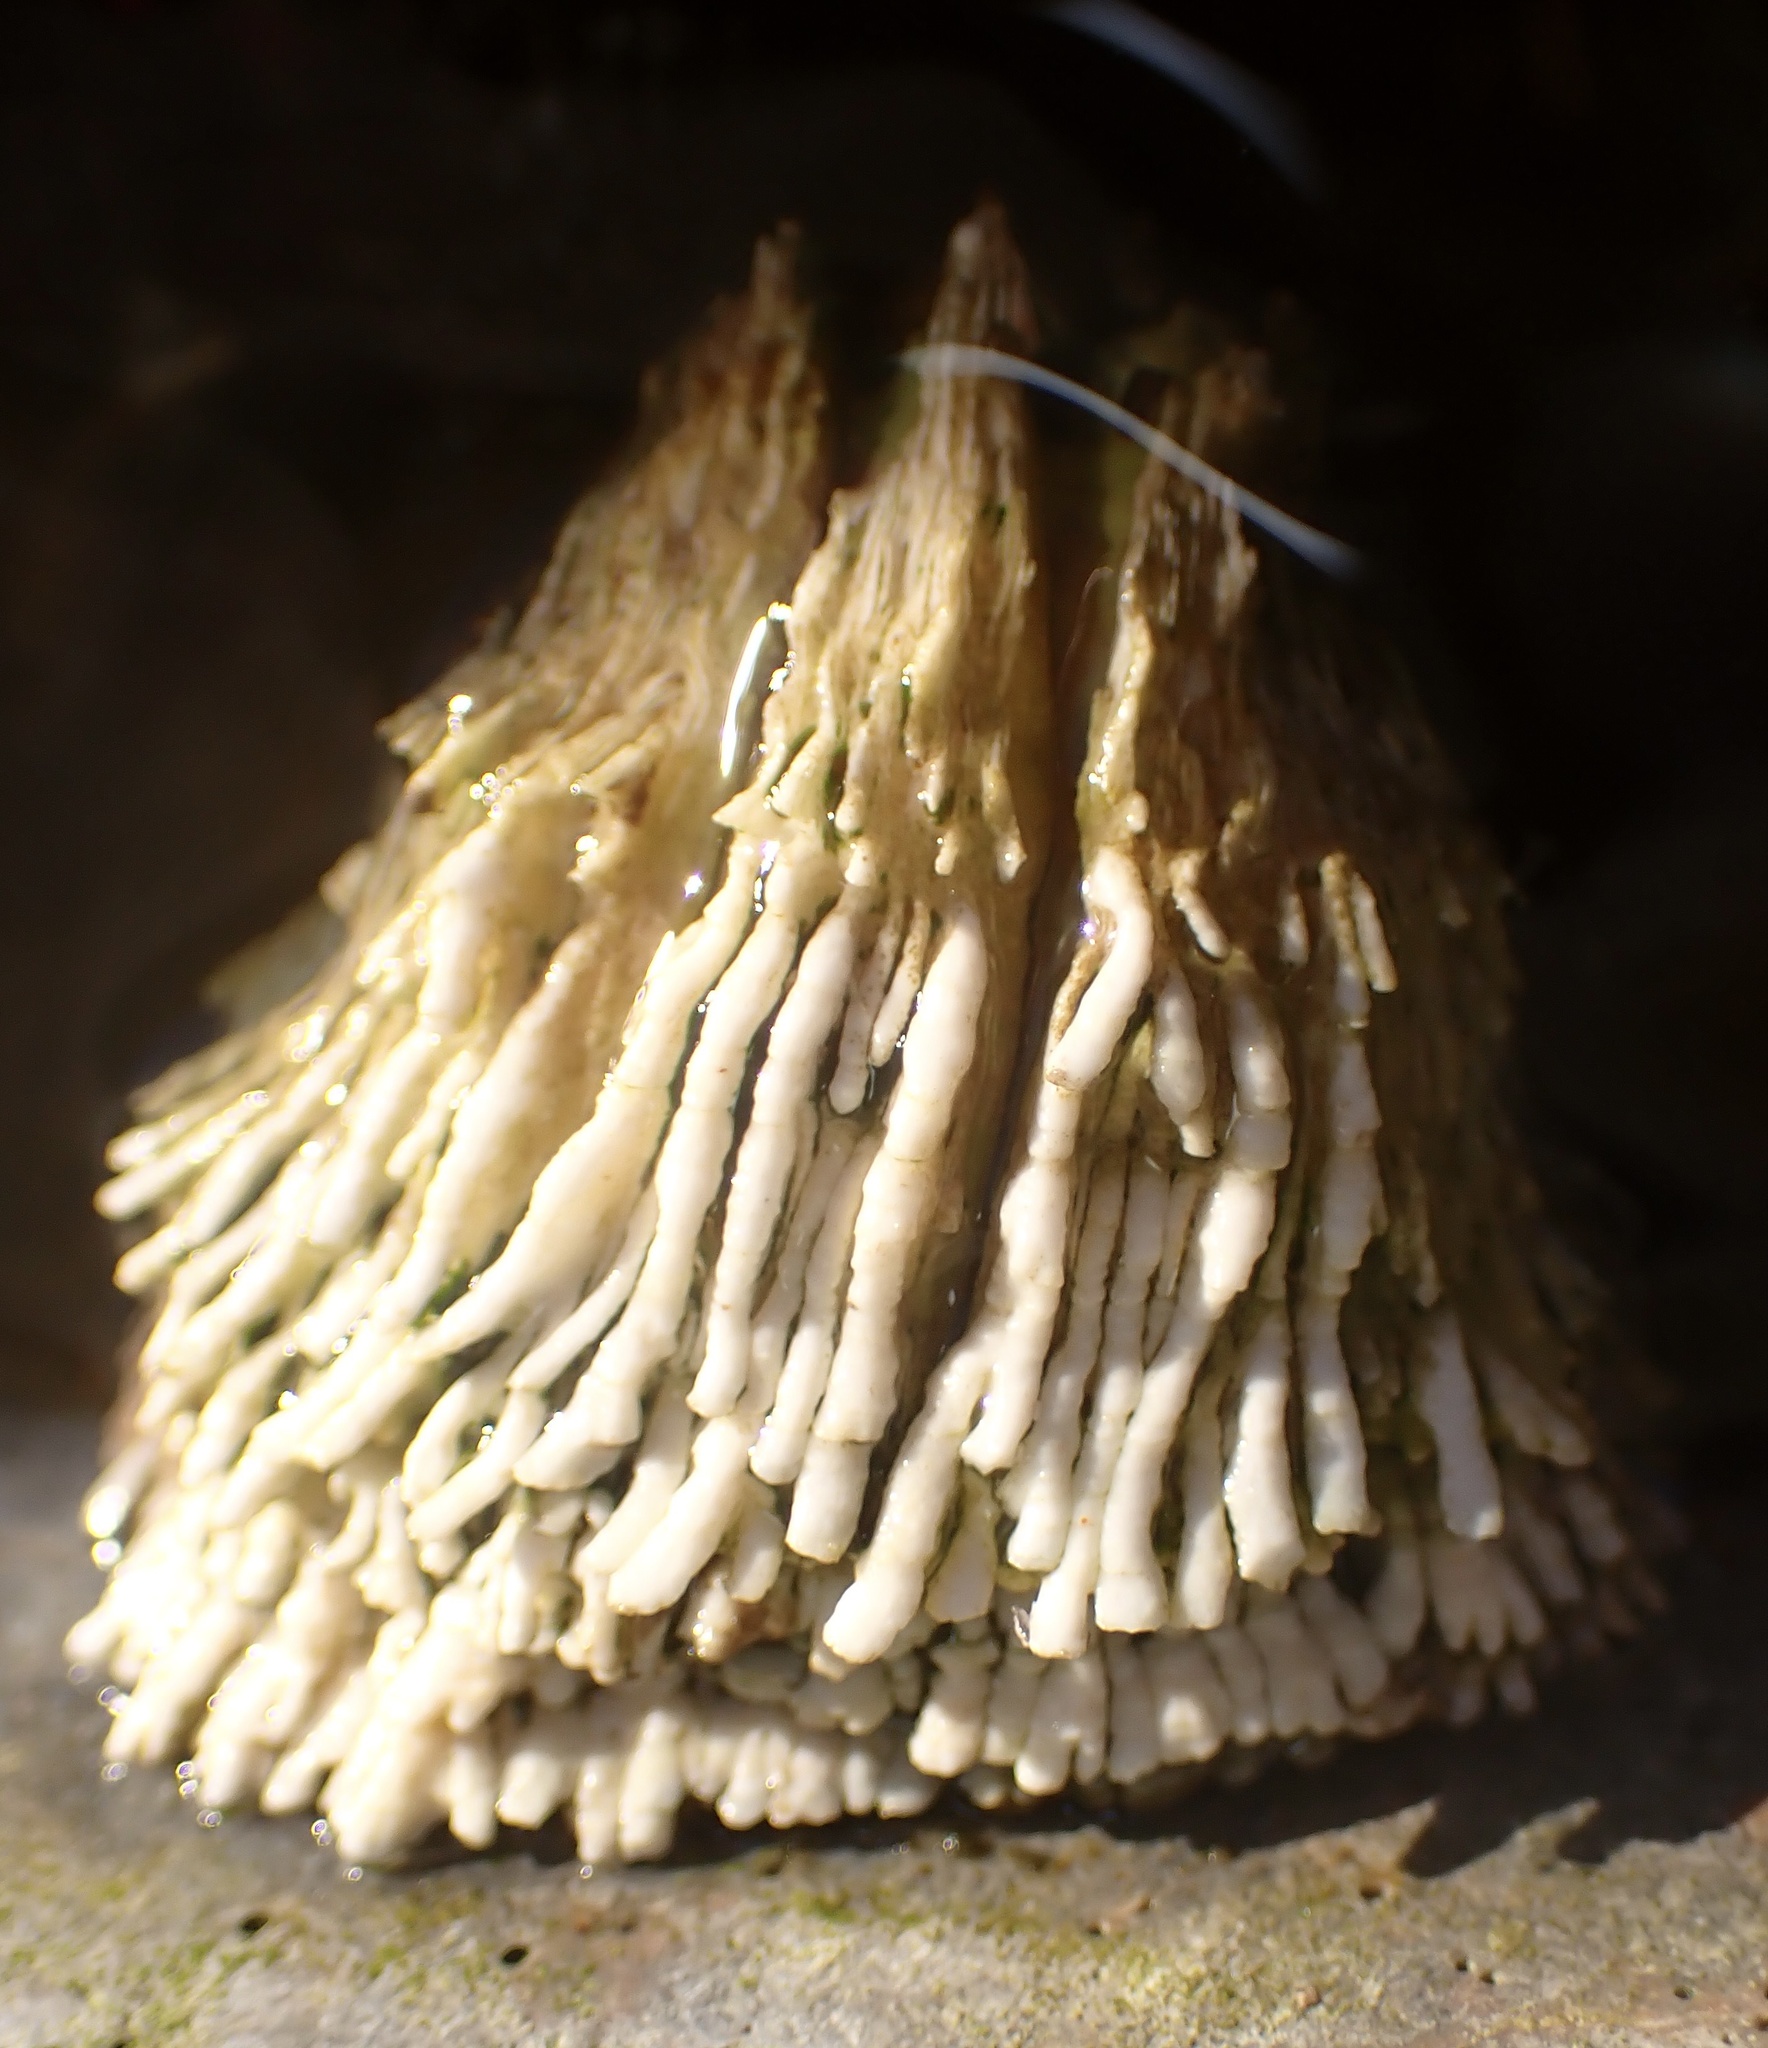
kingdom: Animalia
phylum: Arthropoda
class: Maxillopoda
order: Sessilia
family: Archaeobalanidae
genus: Semibalanus
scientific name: Semibalanus cariosus
